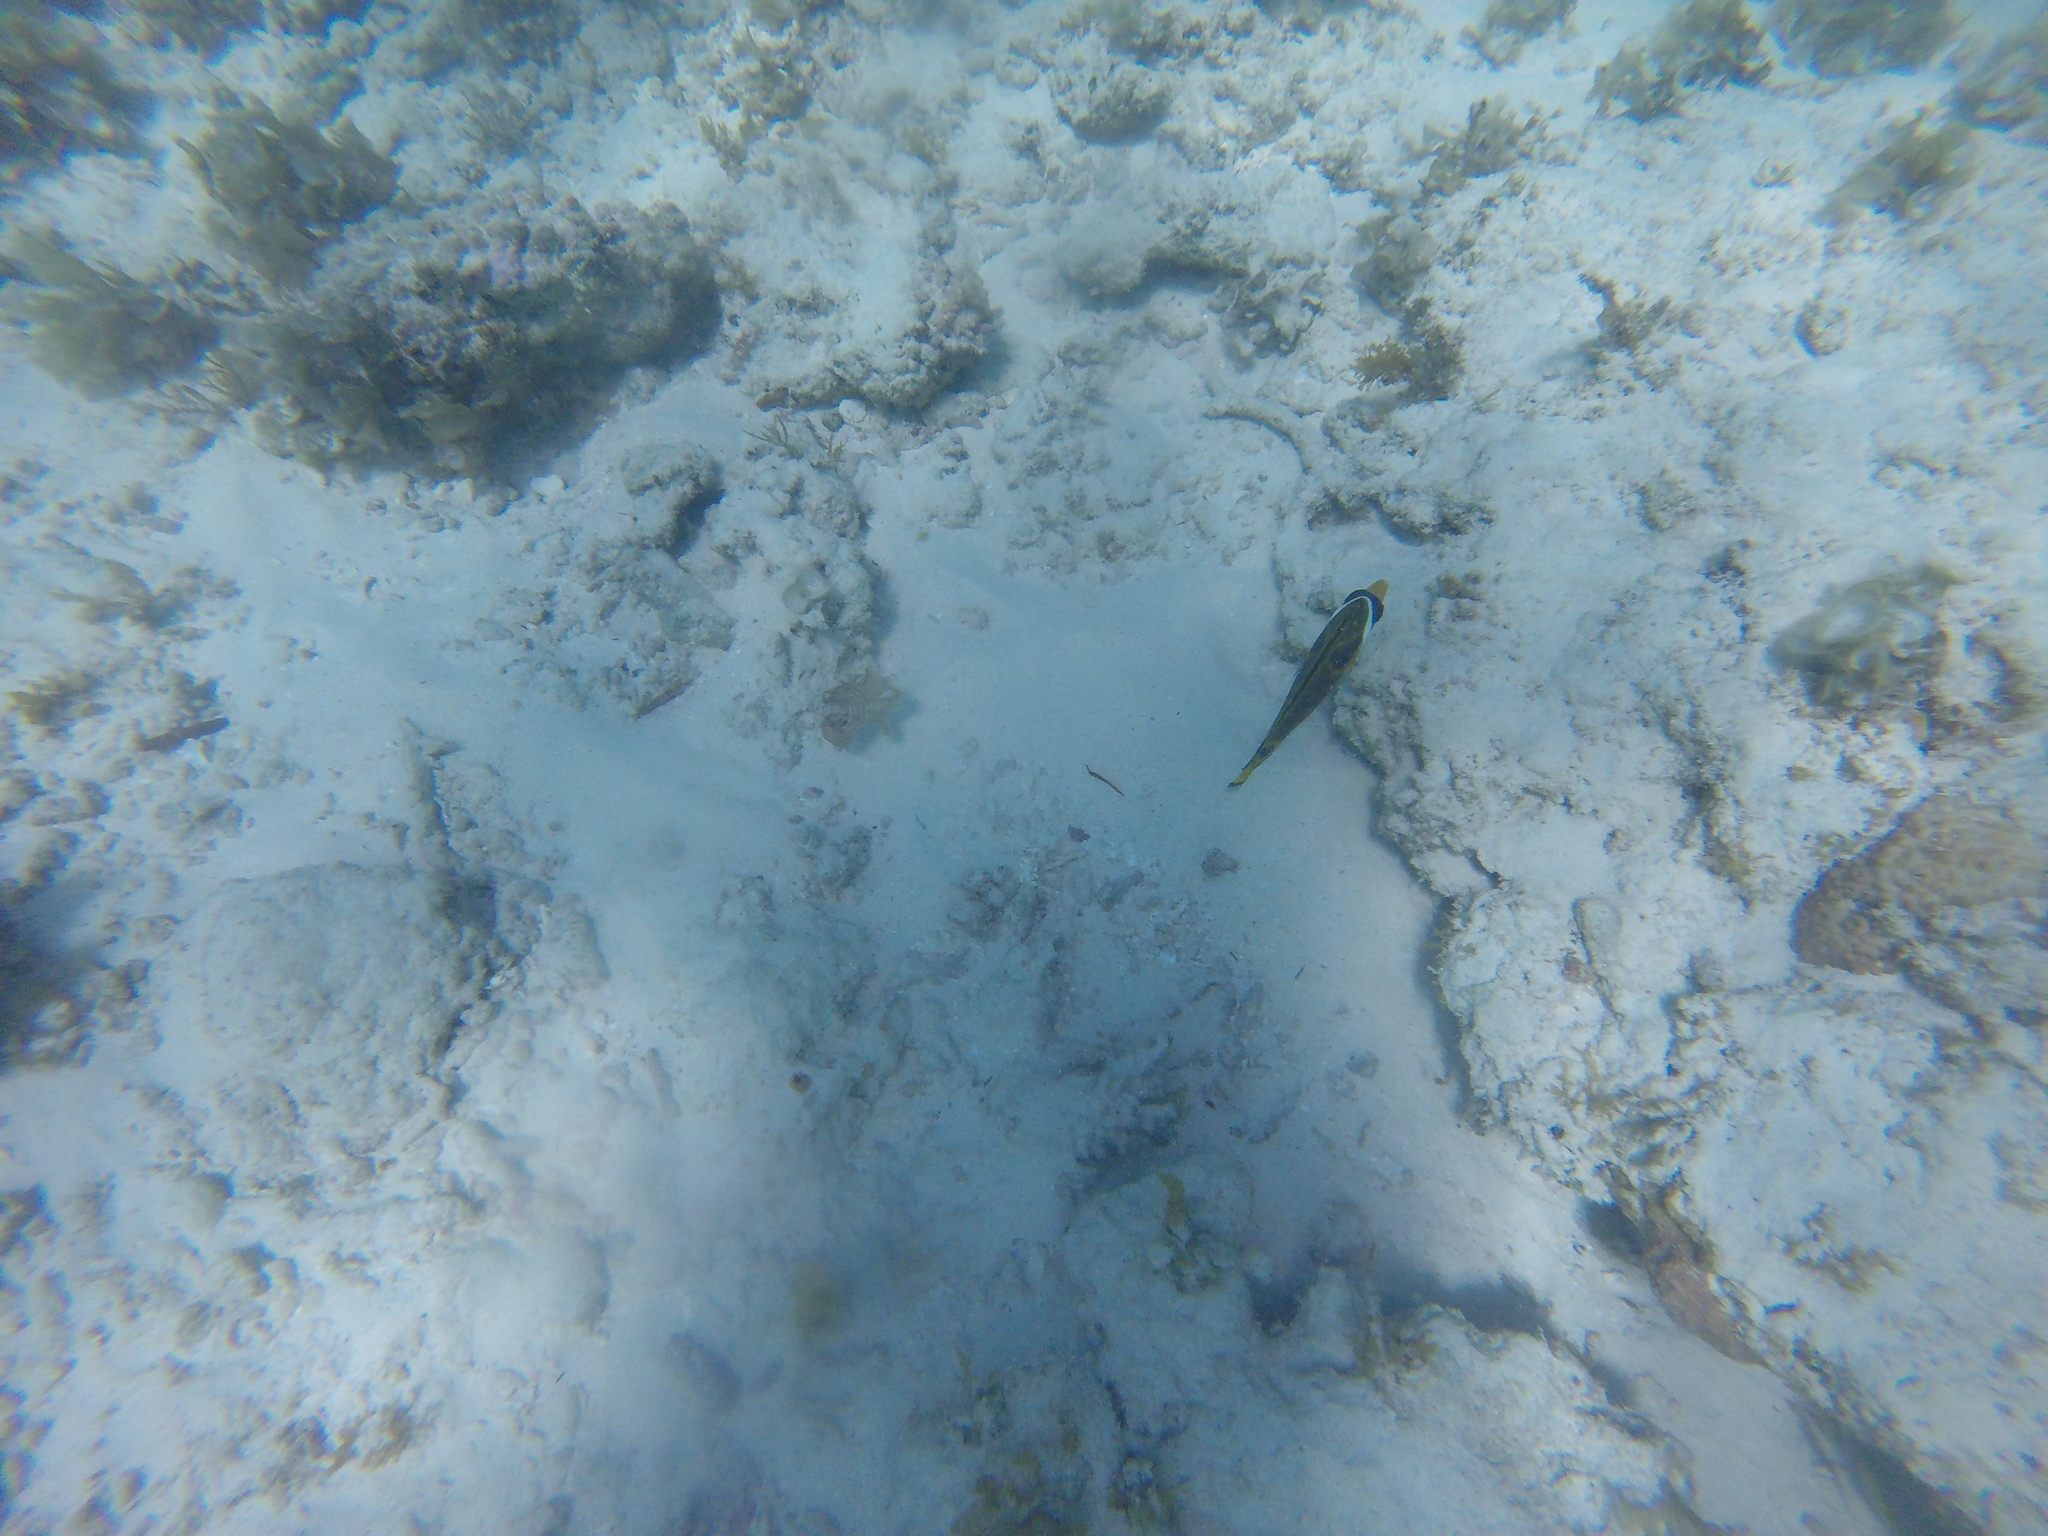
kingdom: Animalia
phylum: Chordata
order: Perciformes
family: Chaetodontidae
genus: Chaetodon
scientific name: Chaetodon lunula
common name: Raccoon butterflyfish
